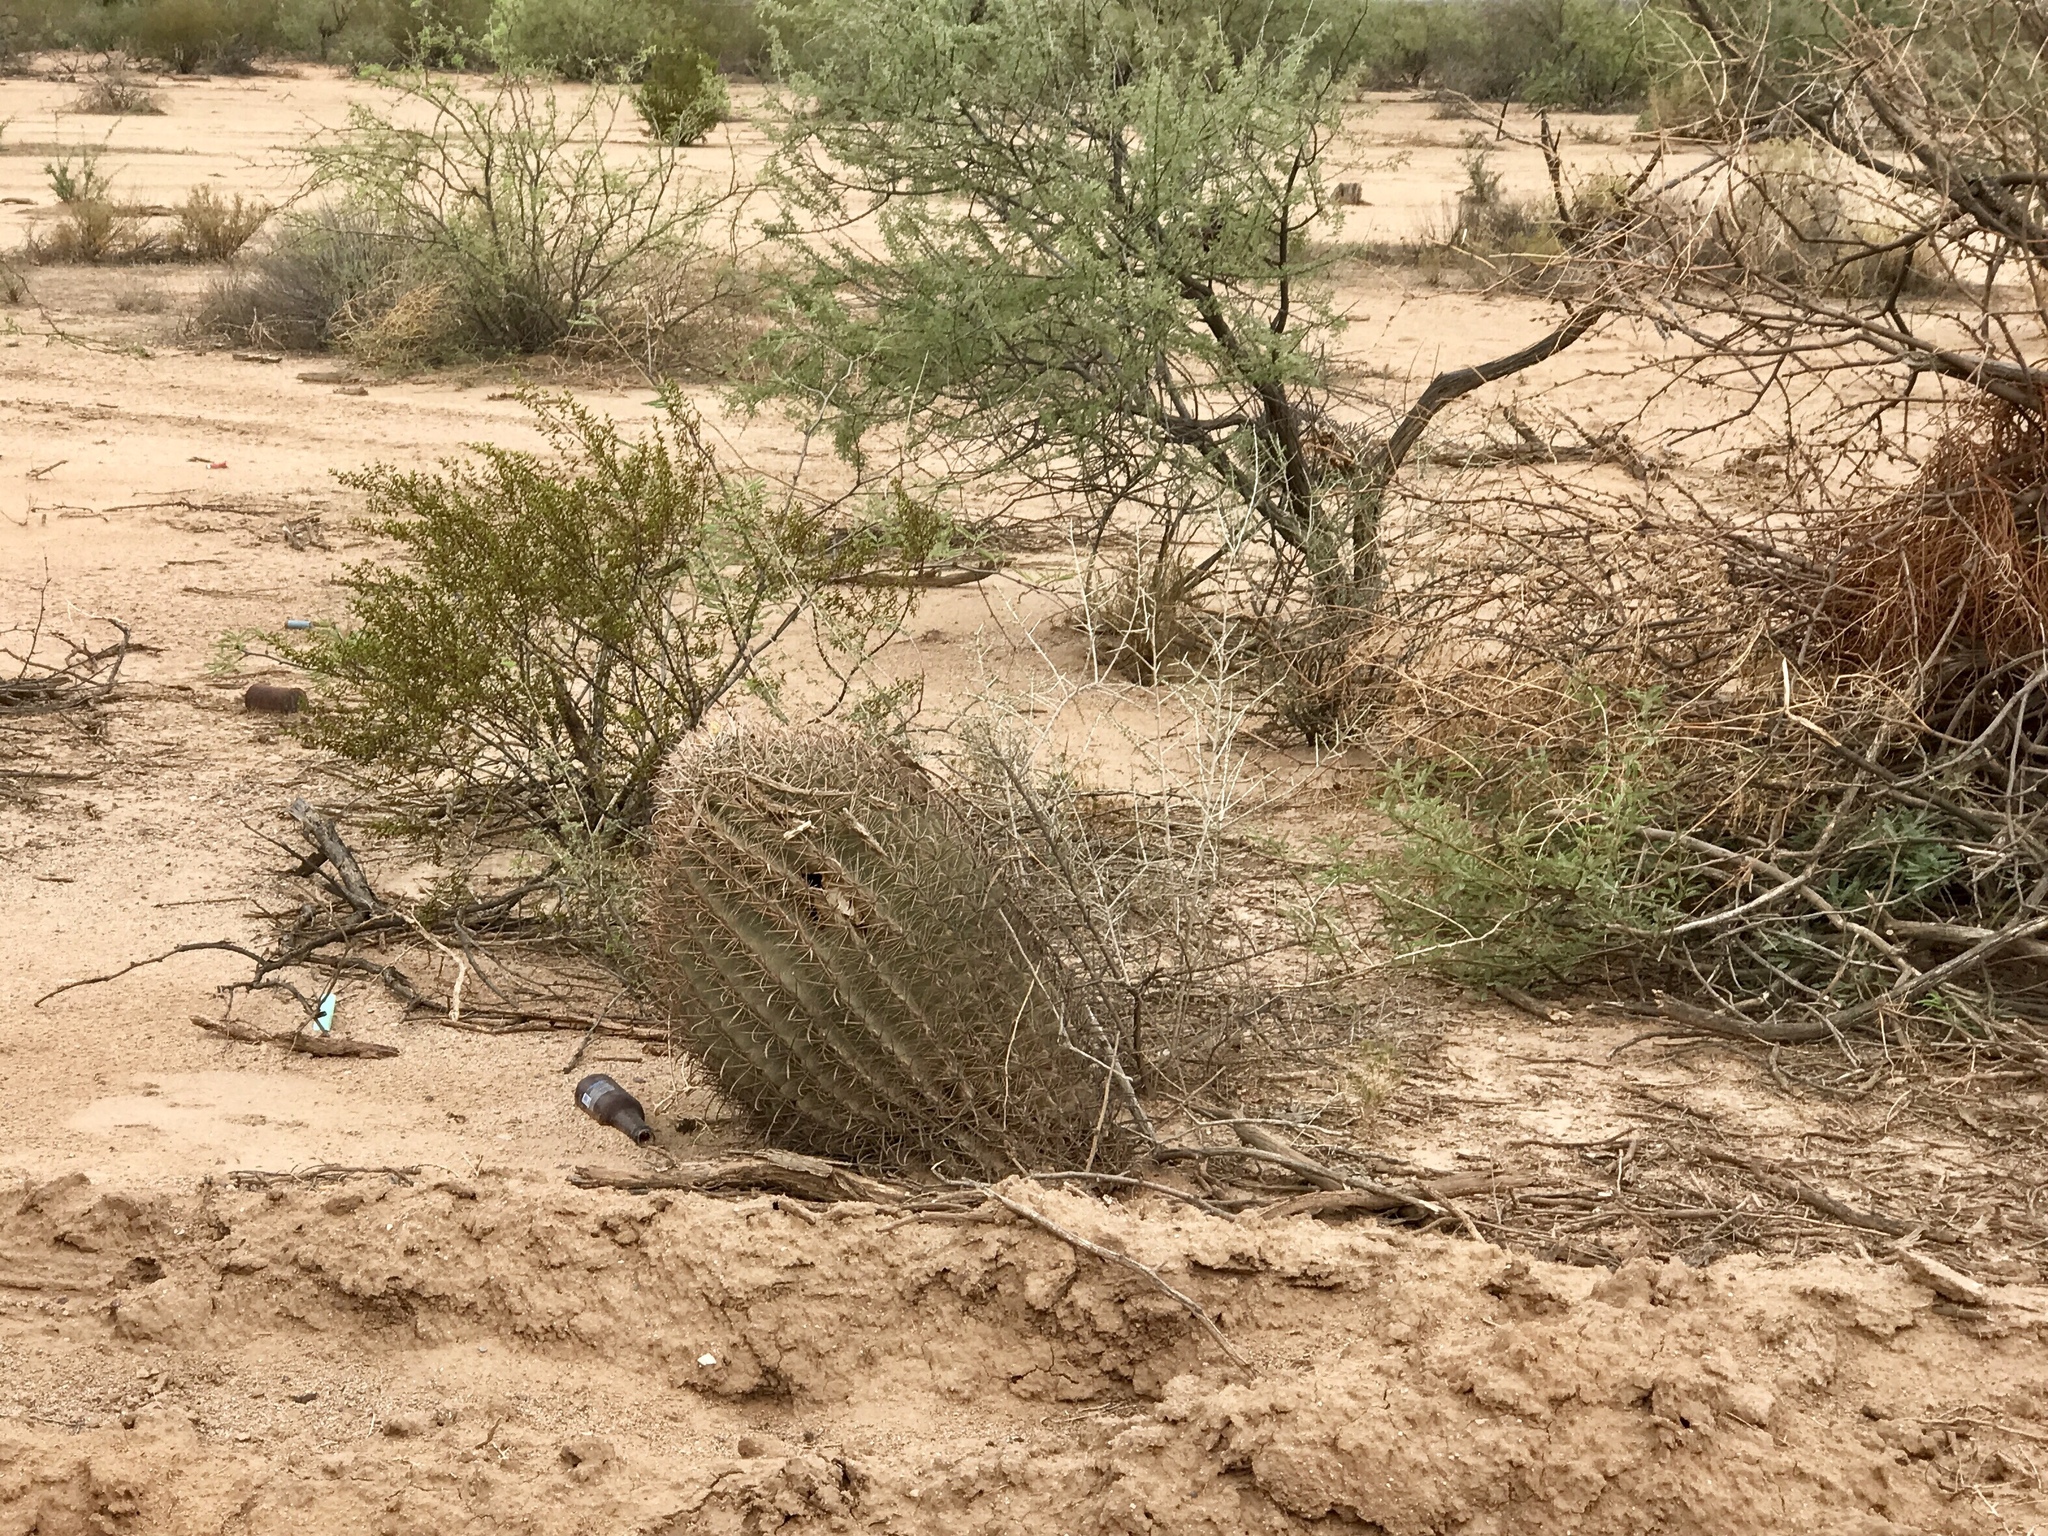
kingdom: Plantae
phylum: Tracheophyta
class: Magnoliopsida
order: Caryophyllales
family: Cactaceae
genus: Ferocactus
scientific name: Ferocactus wislizeni
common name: Candy barrel cactus
